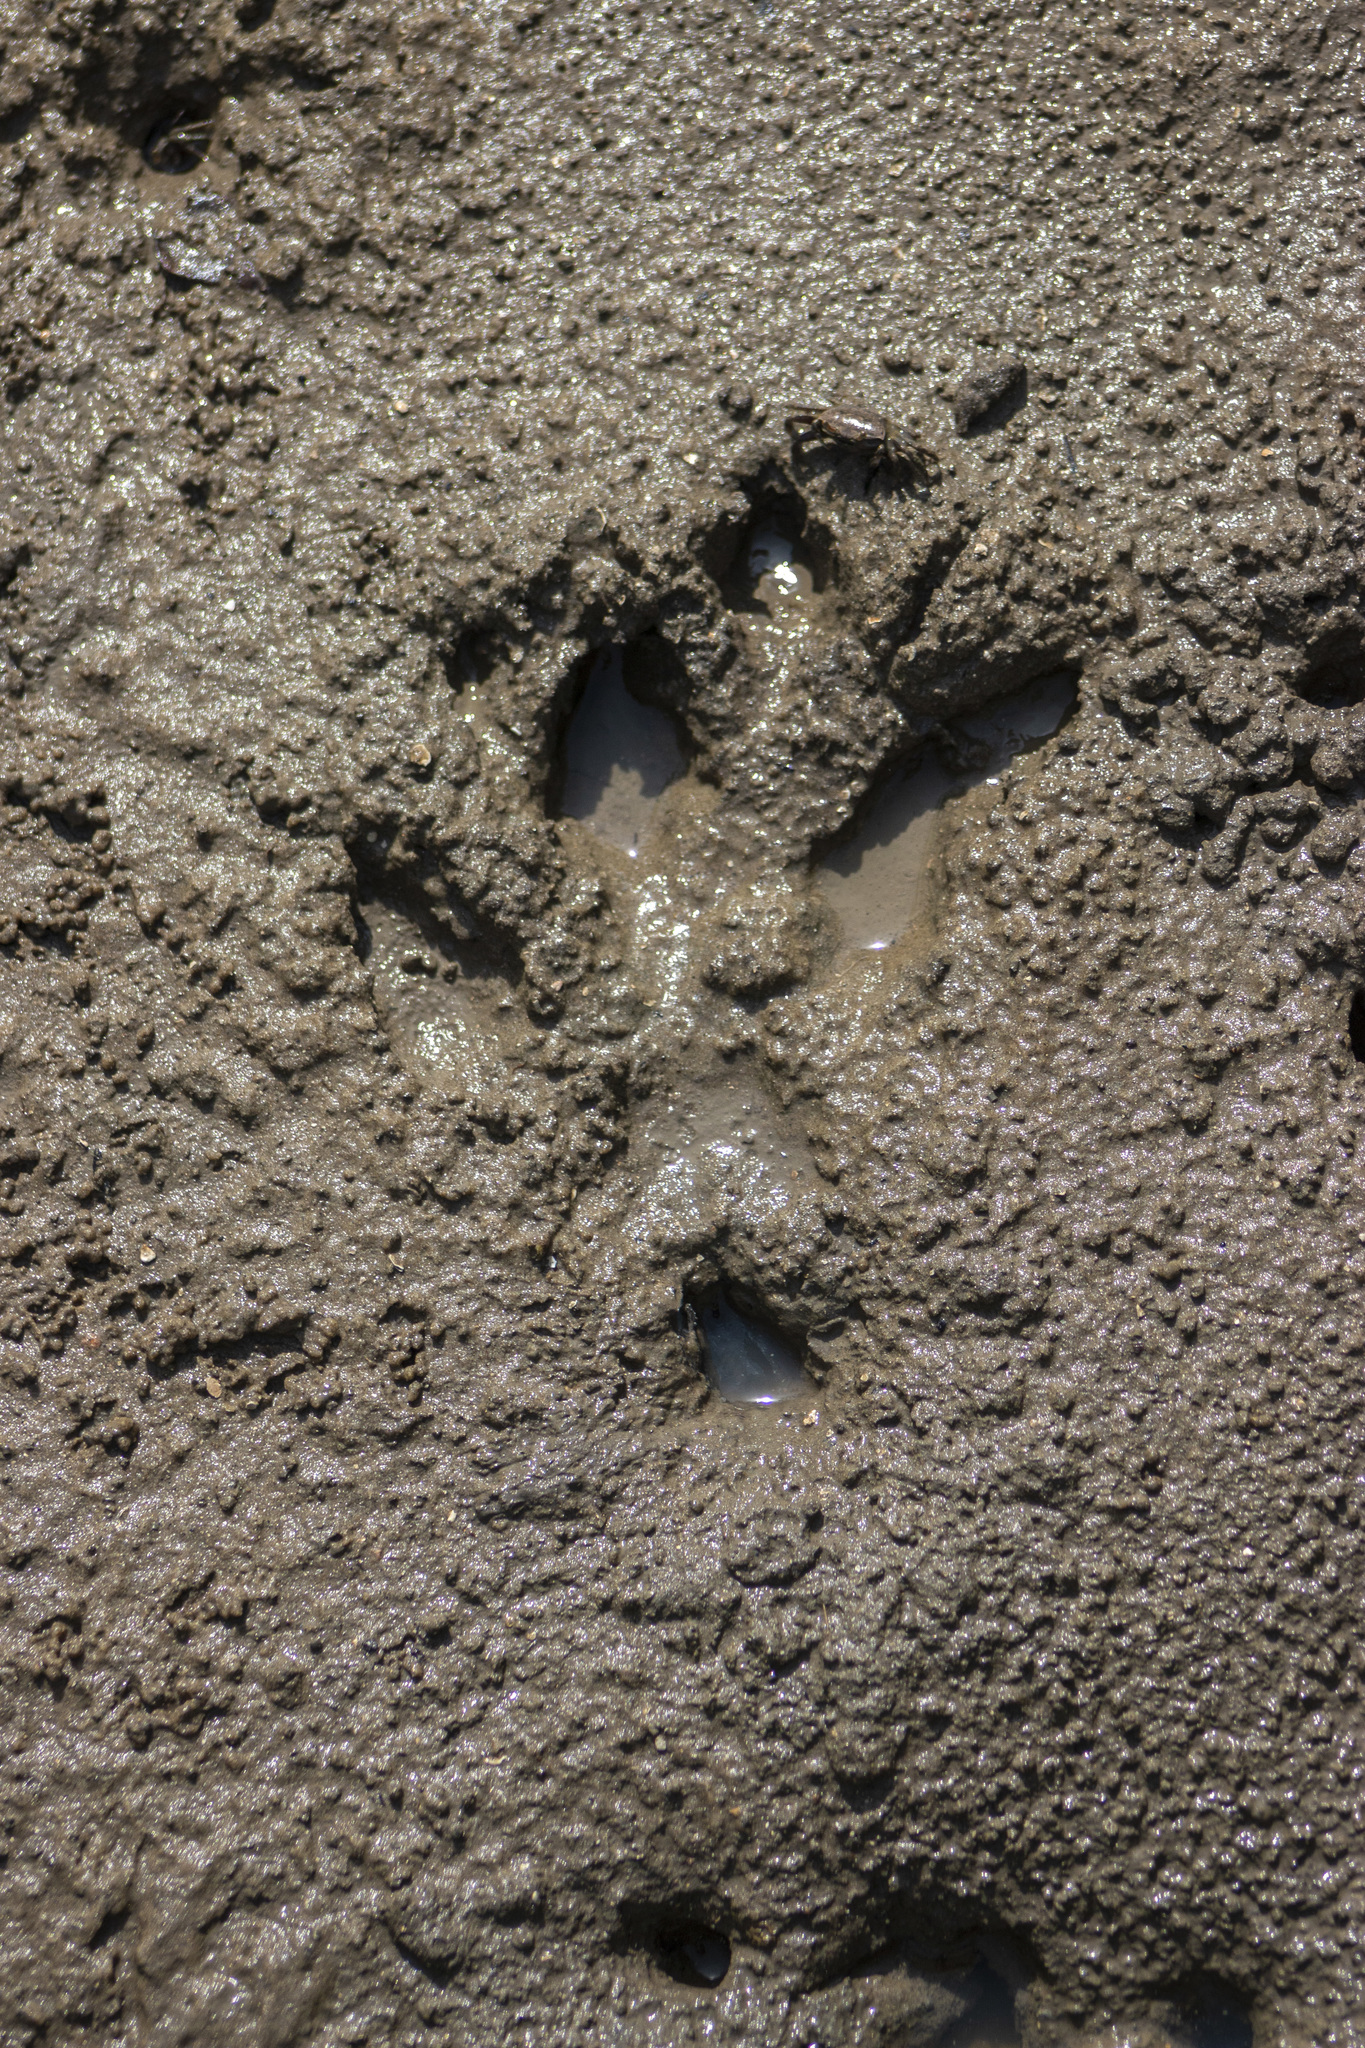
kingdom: Animalia
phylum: Chordata
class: Mammalia
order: Rodentia
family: Caviidae
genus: Hydrochoerus
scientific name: Hydrochoerus hydrochaeris
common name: Capybara
